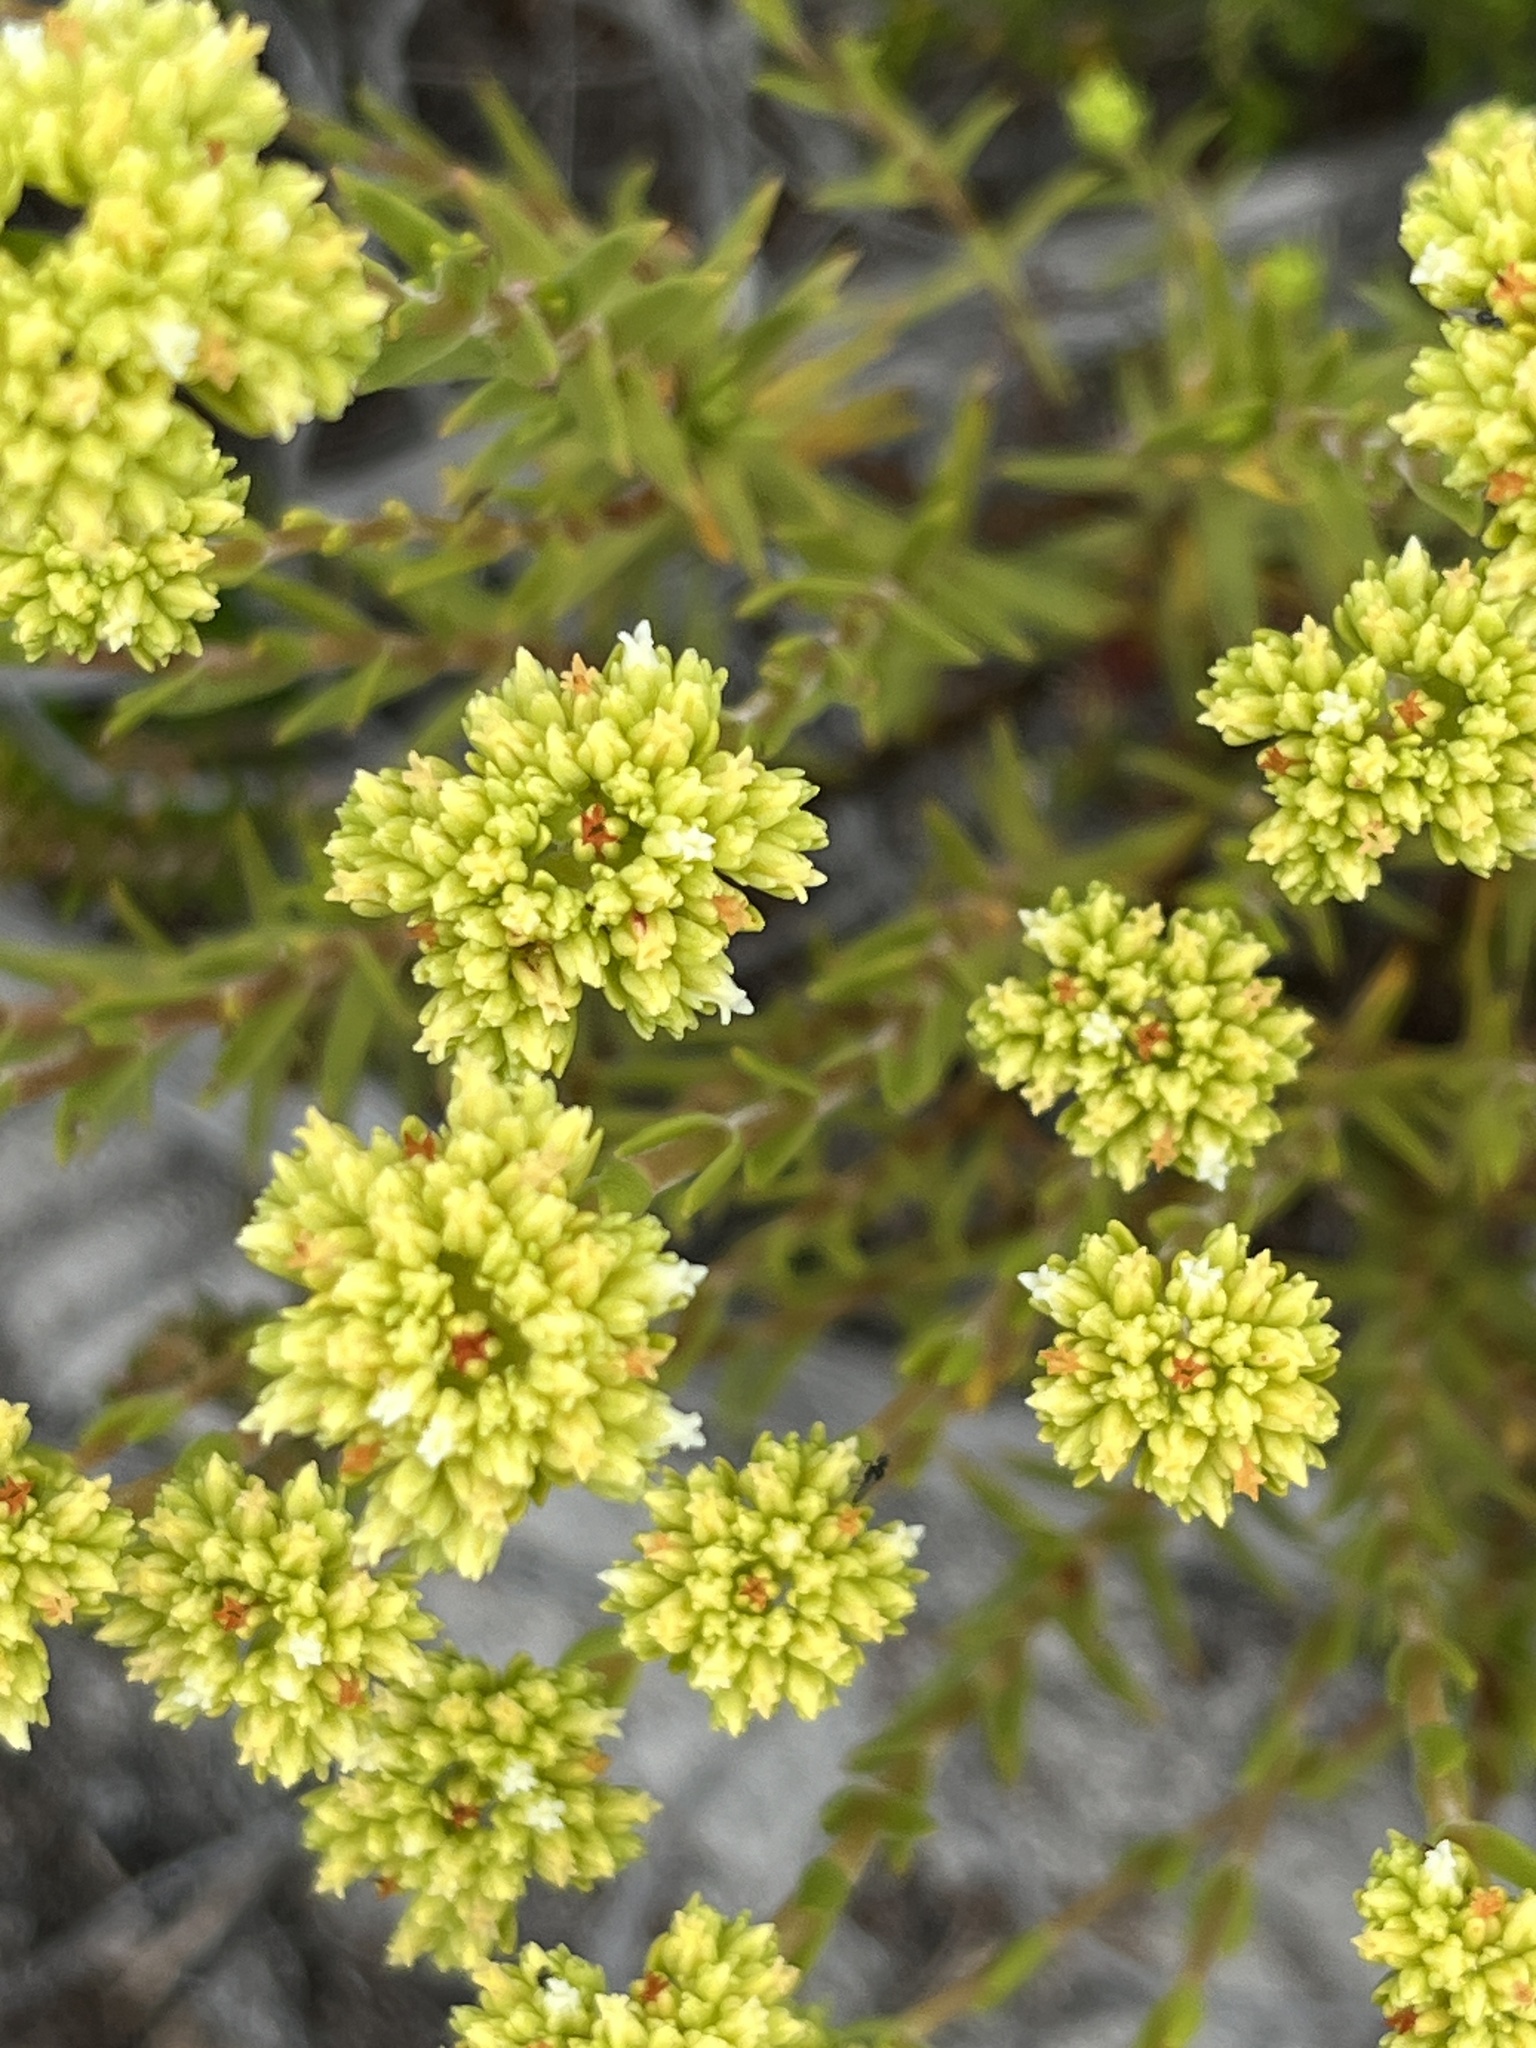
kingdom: Plantae
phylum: Tracheophyta
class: Magnoliopsida
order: Saxifragales
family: Crassulaceae
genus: Crassula
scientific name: Crassula subulata
